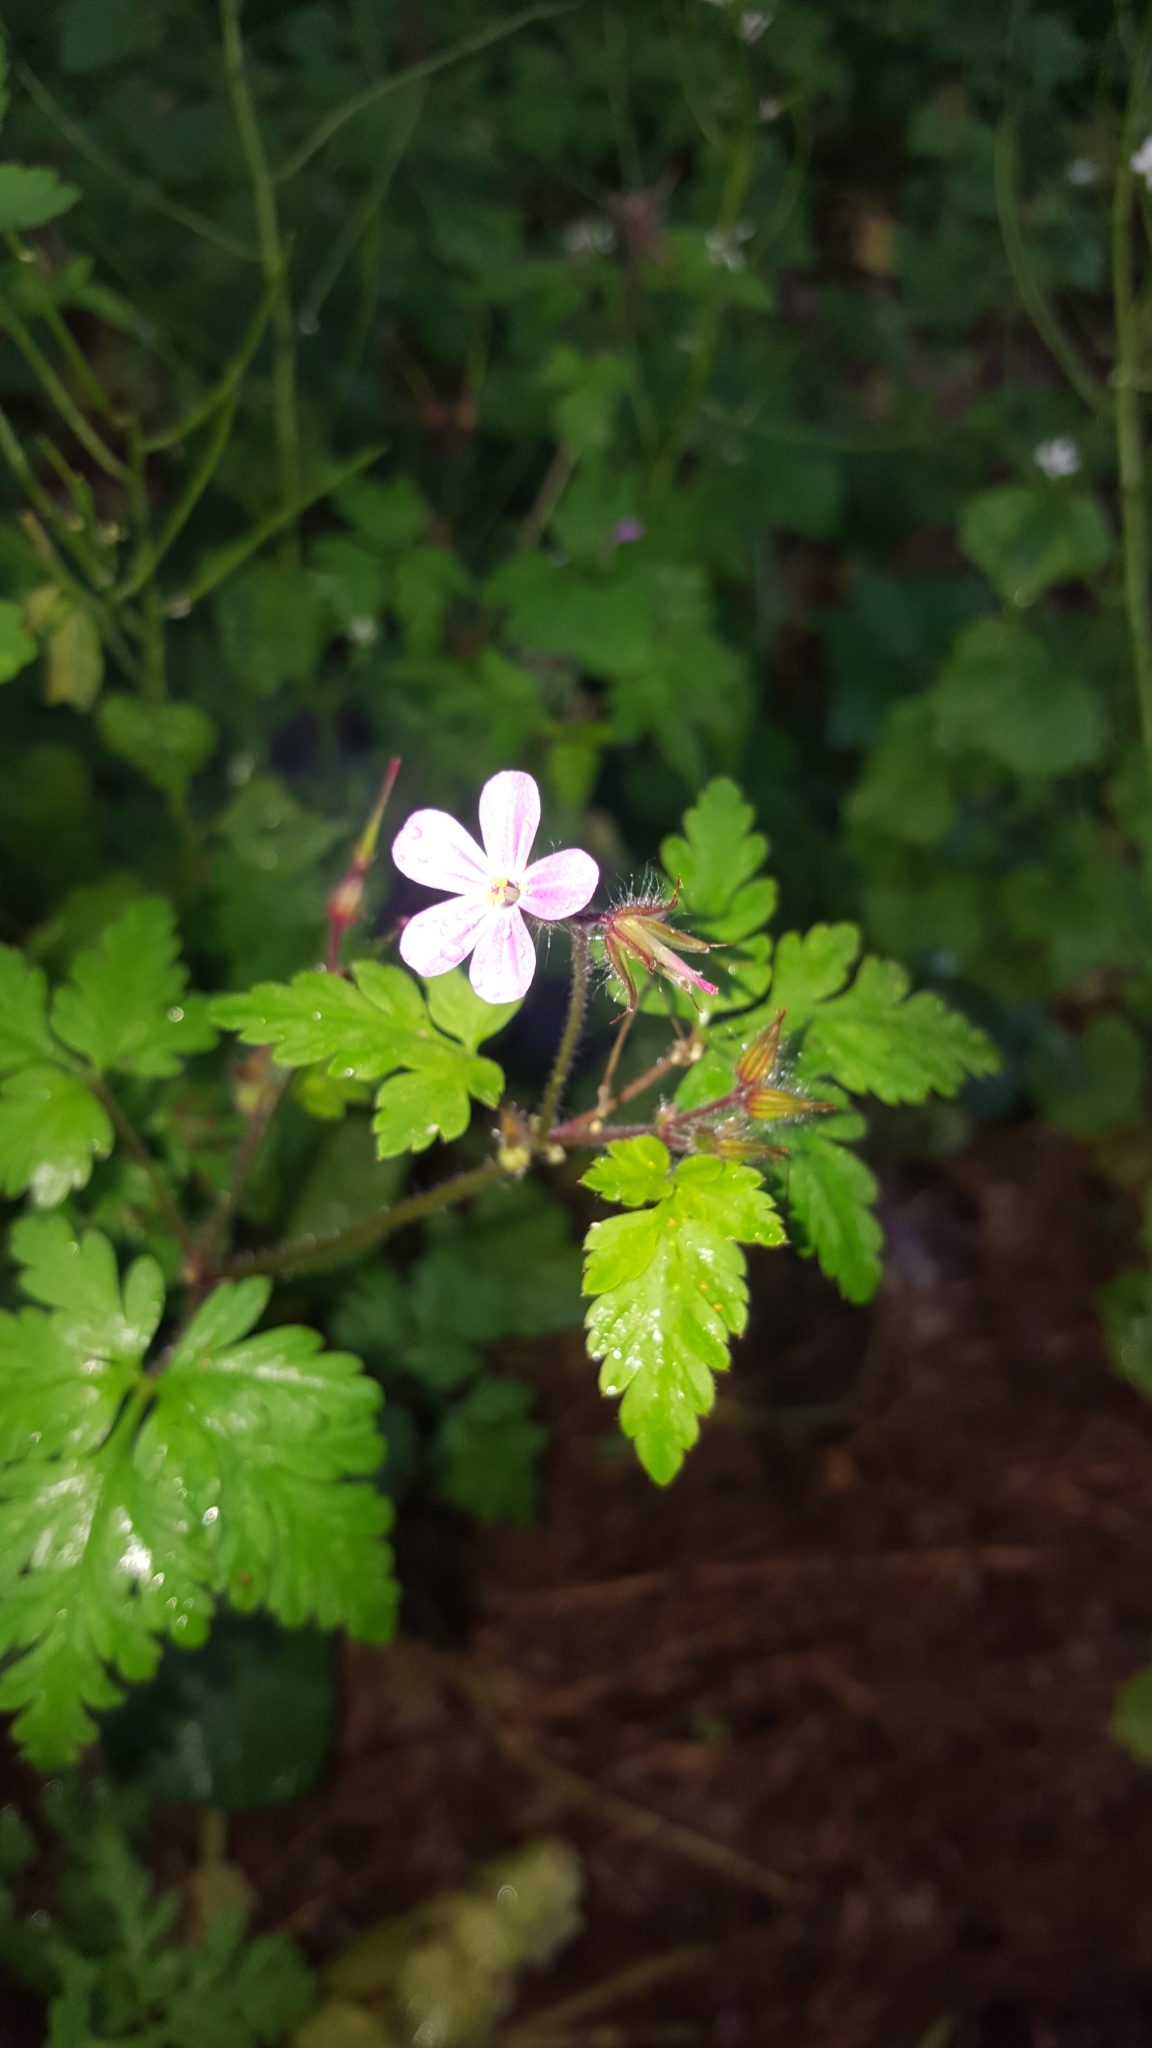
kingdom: Plantae
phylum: Tracheophyta
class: Magnoliopsida
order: Geraniales
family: Geraniaceae
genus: Geranium
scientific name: Geranium robertianum
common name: Herb-robert
